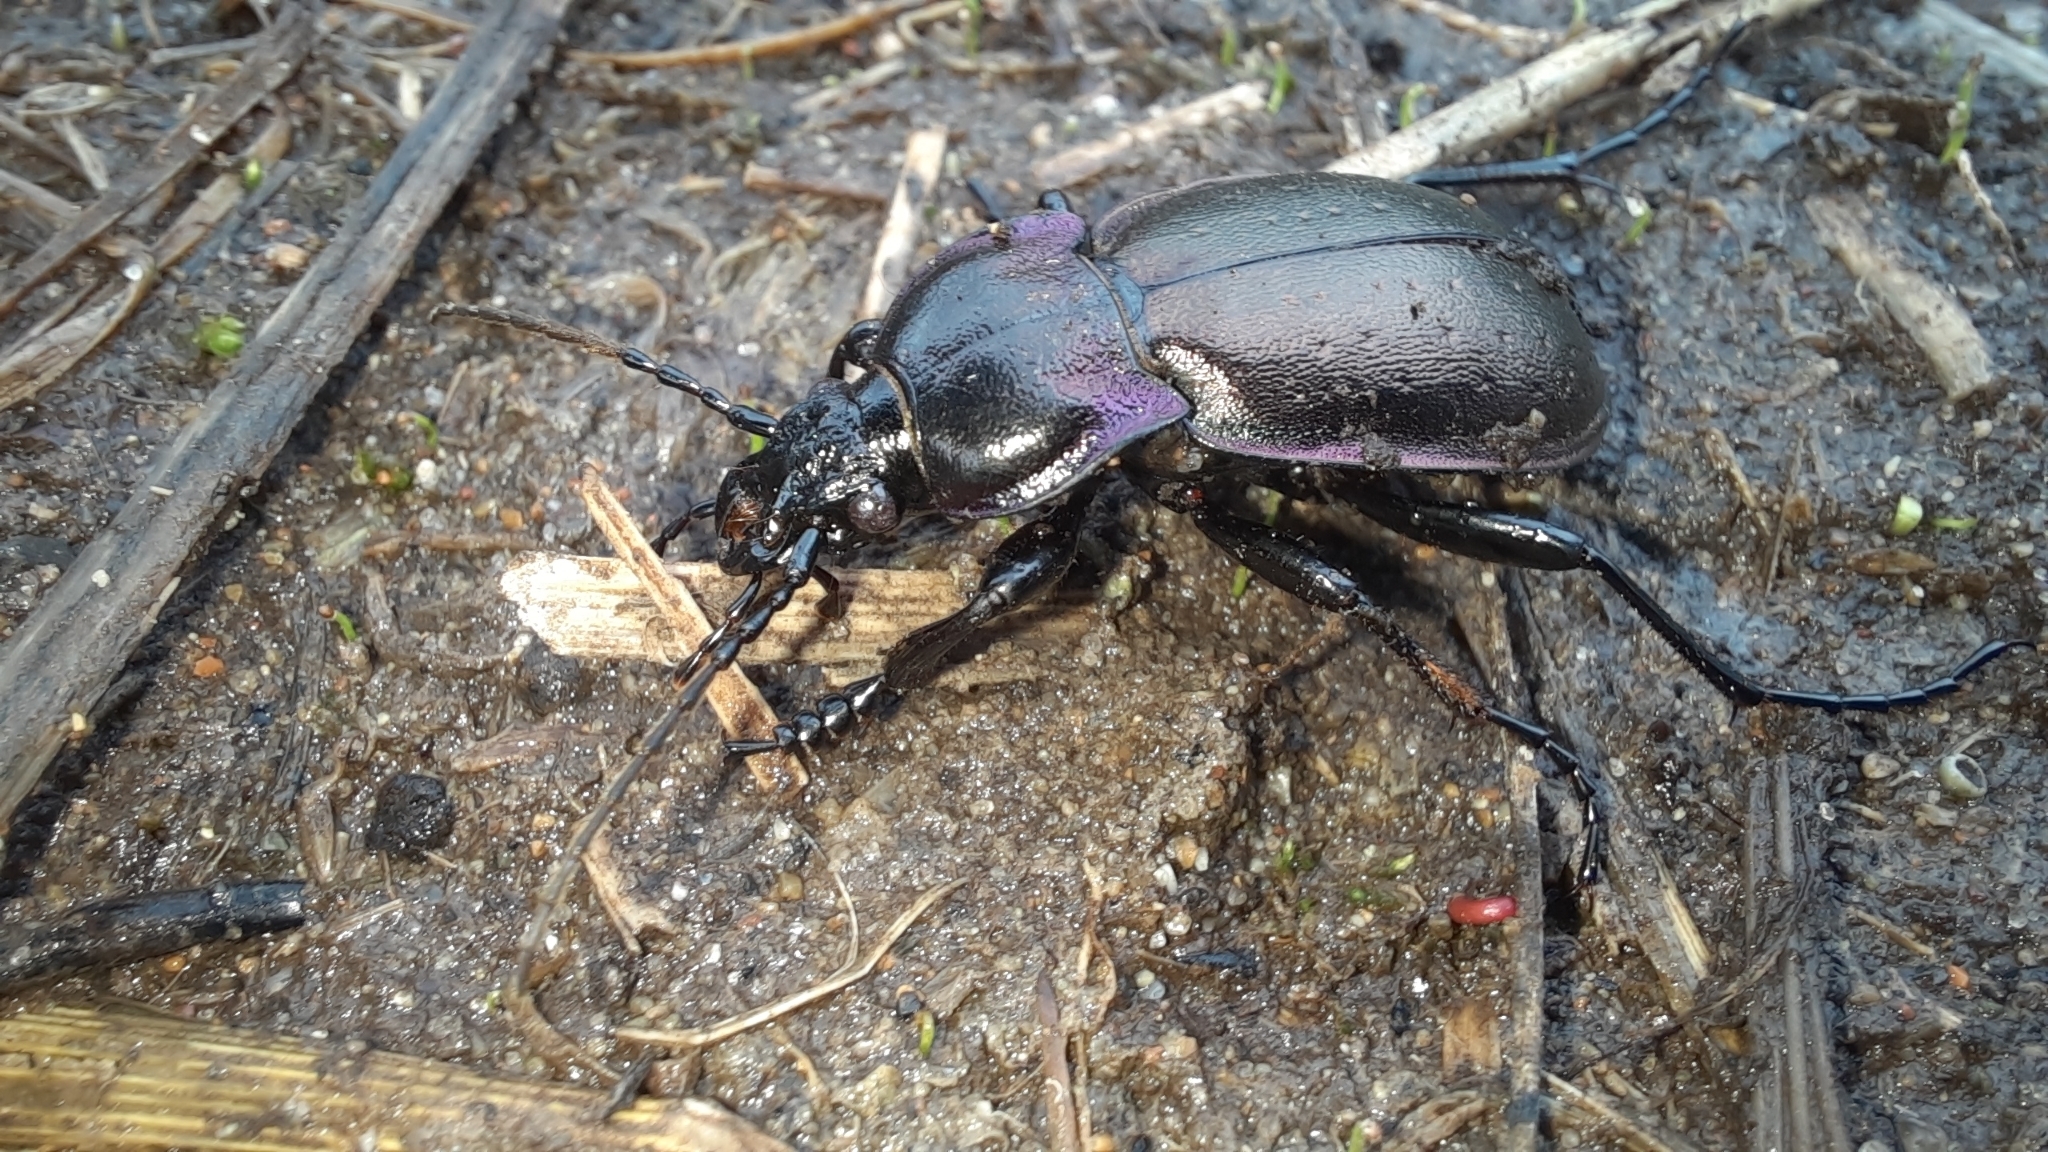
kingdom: Animalia
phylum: Arthropoda
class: Insecta
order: Coleoptera
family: Carabidae
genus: Carabus
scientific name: Carabus nemoralis
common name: European ground beetle
